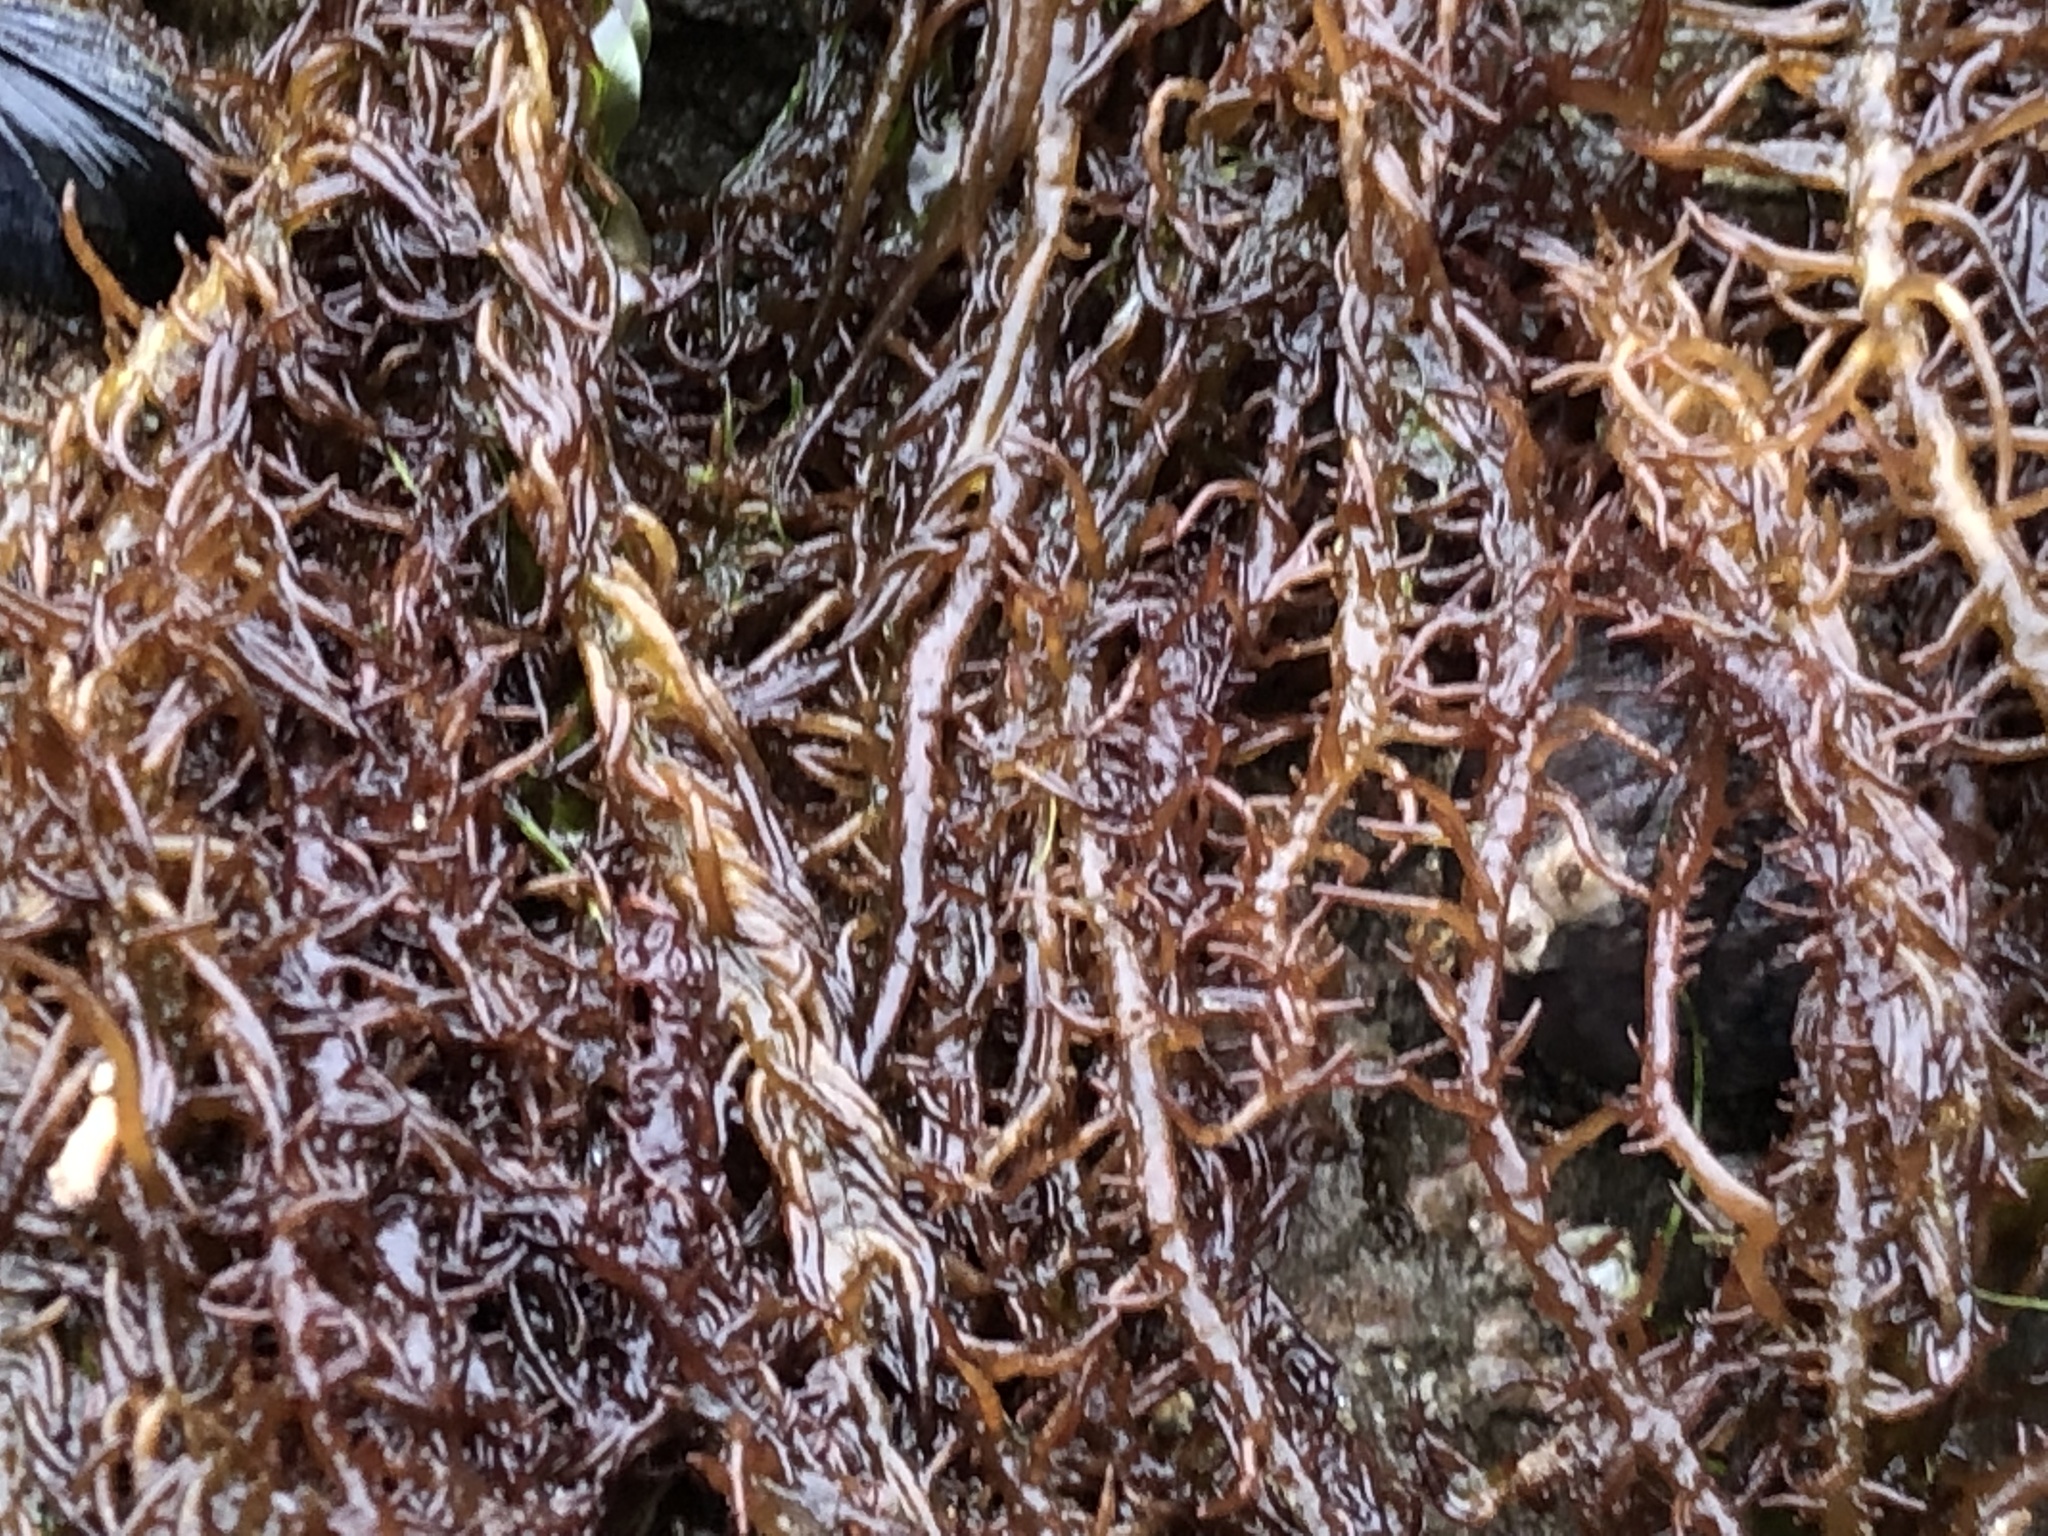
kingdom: Plantae
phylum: Rhodophyta
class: Florideophyceae
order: Nemaliales
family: Liagoraceae
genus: Cumagloia
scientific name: Cumagloia andersonii
